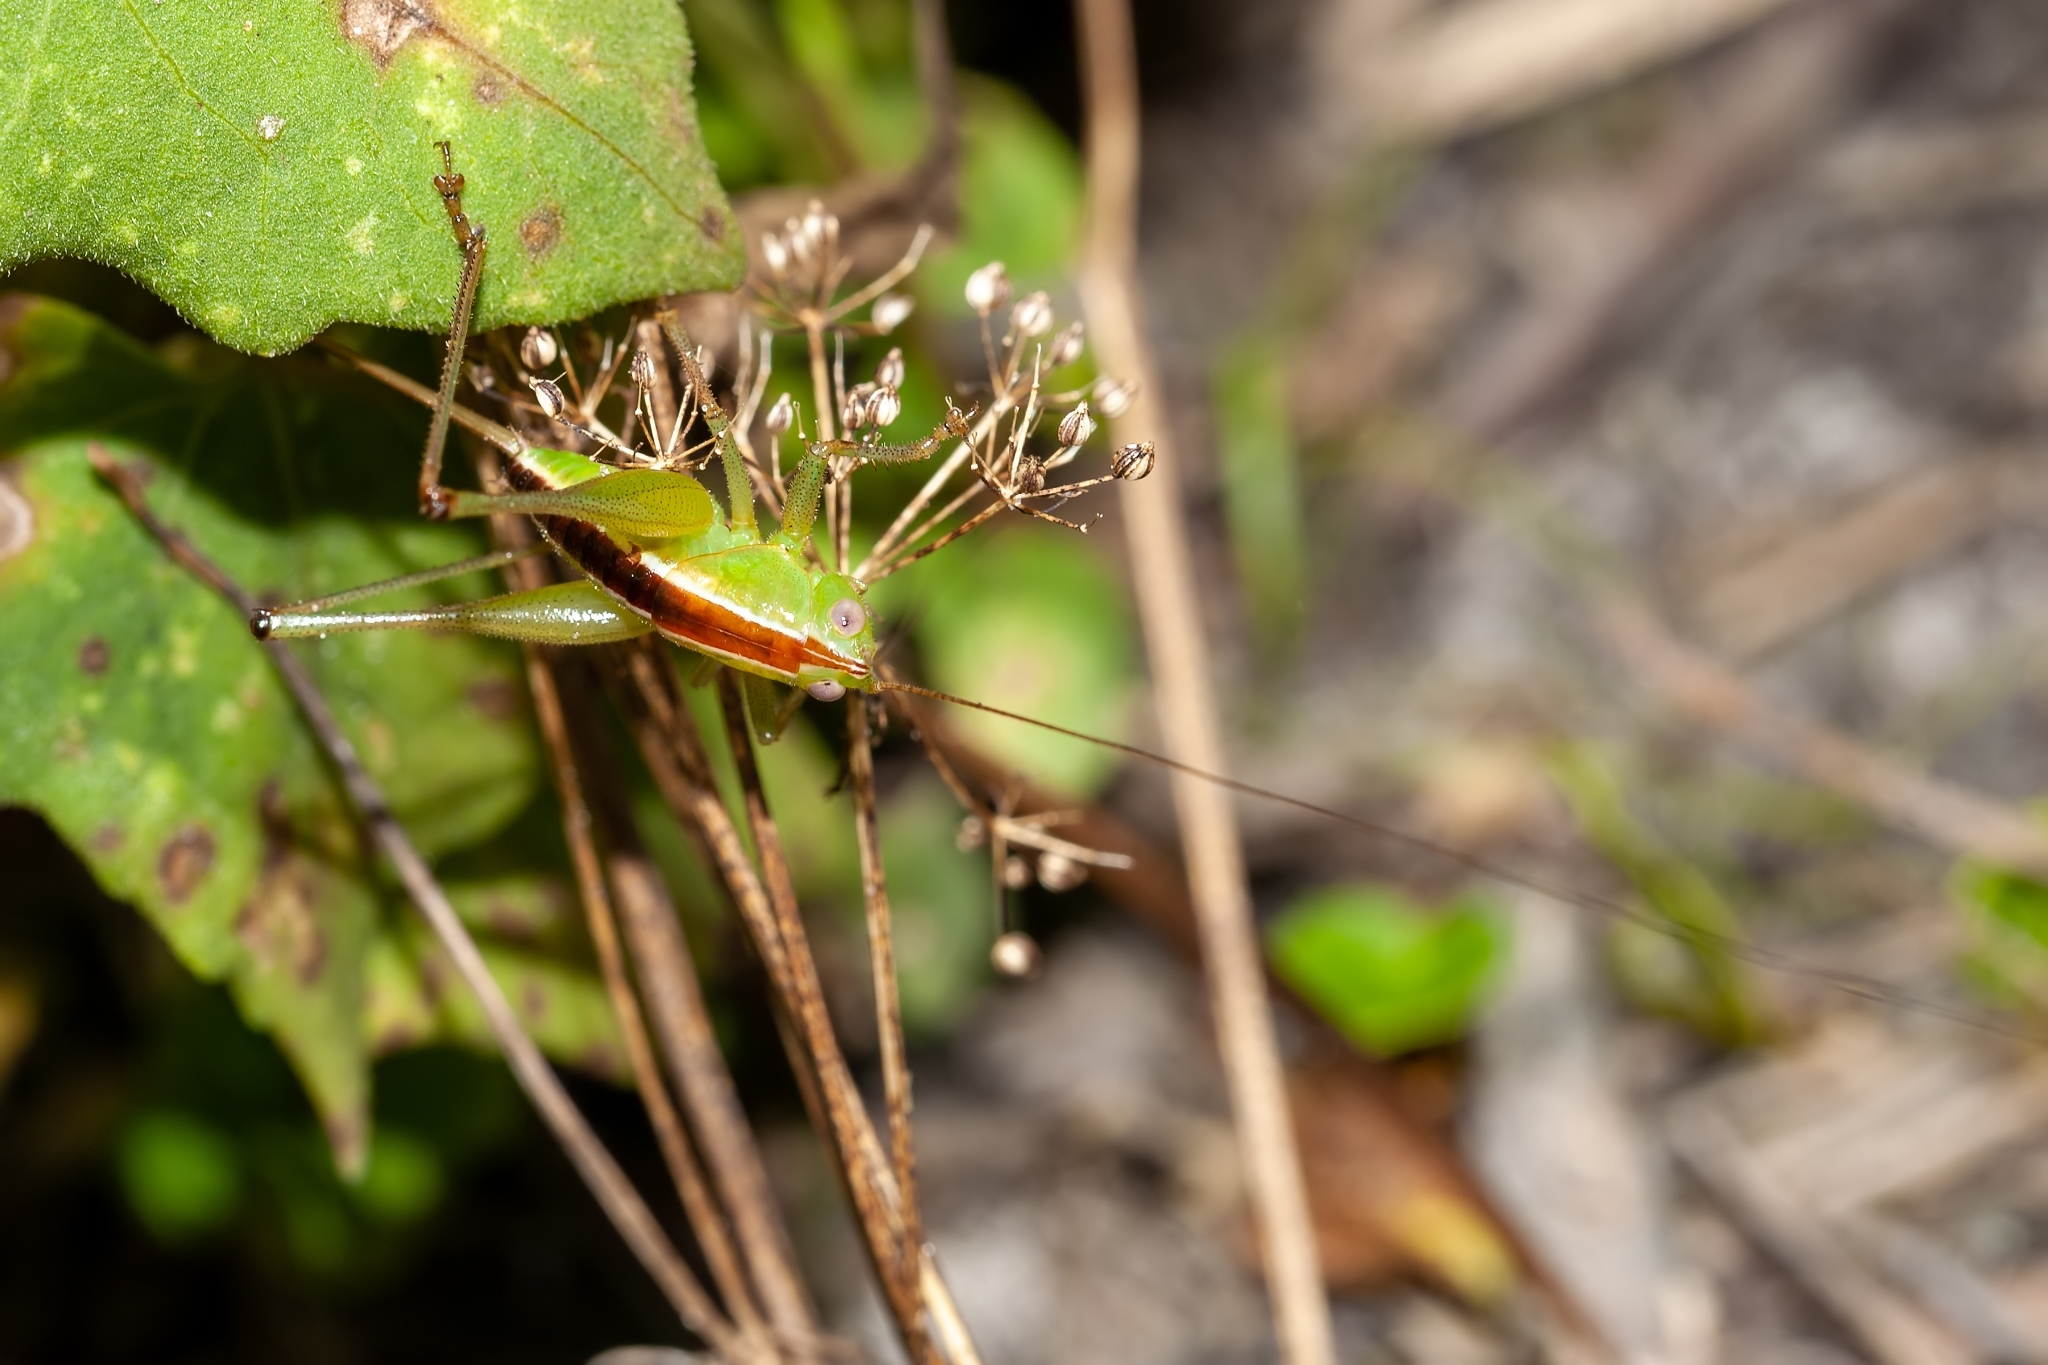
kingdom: Animalia
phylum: Arthropoda
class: Insecta
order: Orthoptera
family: Tettigoniidae
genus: Odontoxiphidium
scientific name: Odontoxiphidium apterum
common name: Wingless meadow katydid
